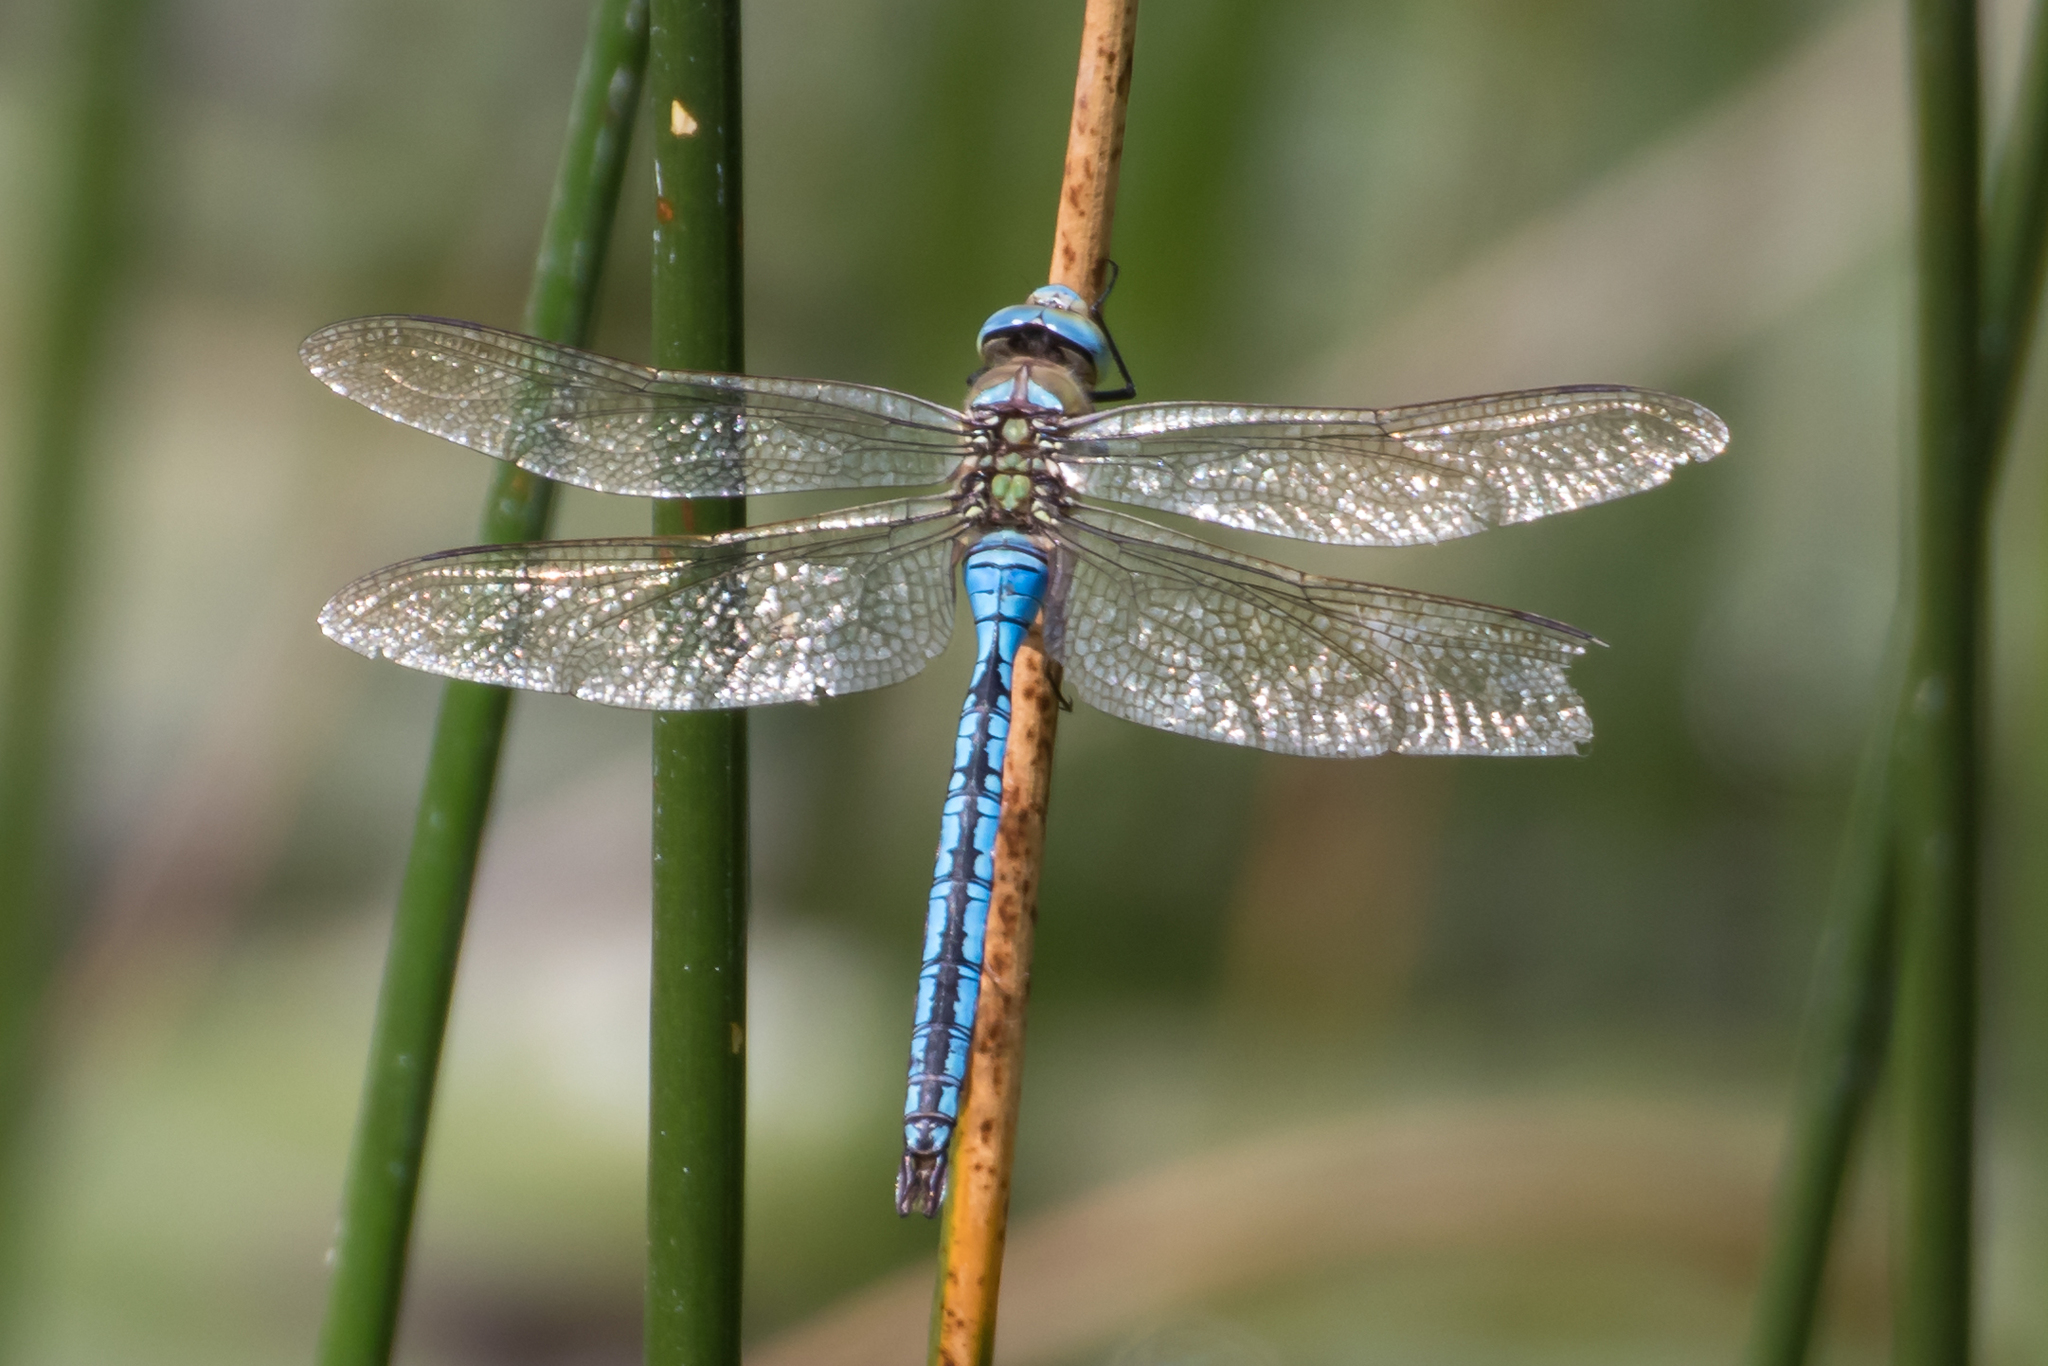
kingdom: Animalia
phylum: Arthropoda
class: Insecta
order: Odonata
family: Aeshnidae
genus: Anax
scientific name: Anax imperator
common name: Emperor dragonfly
